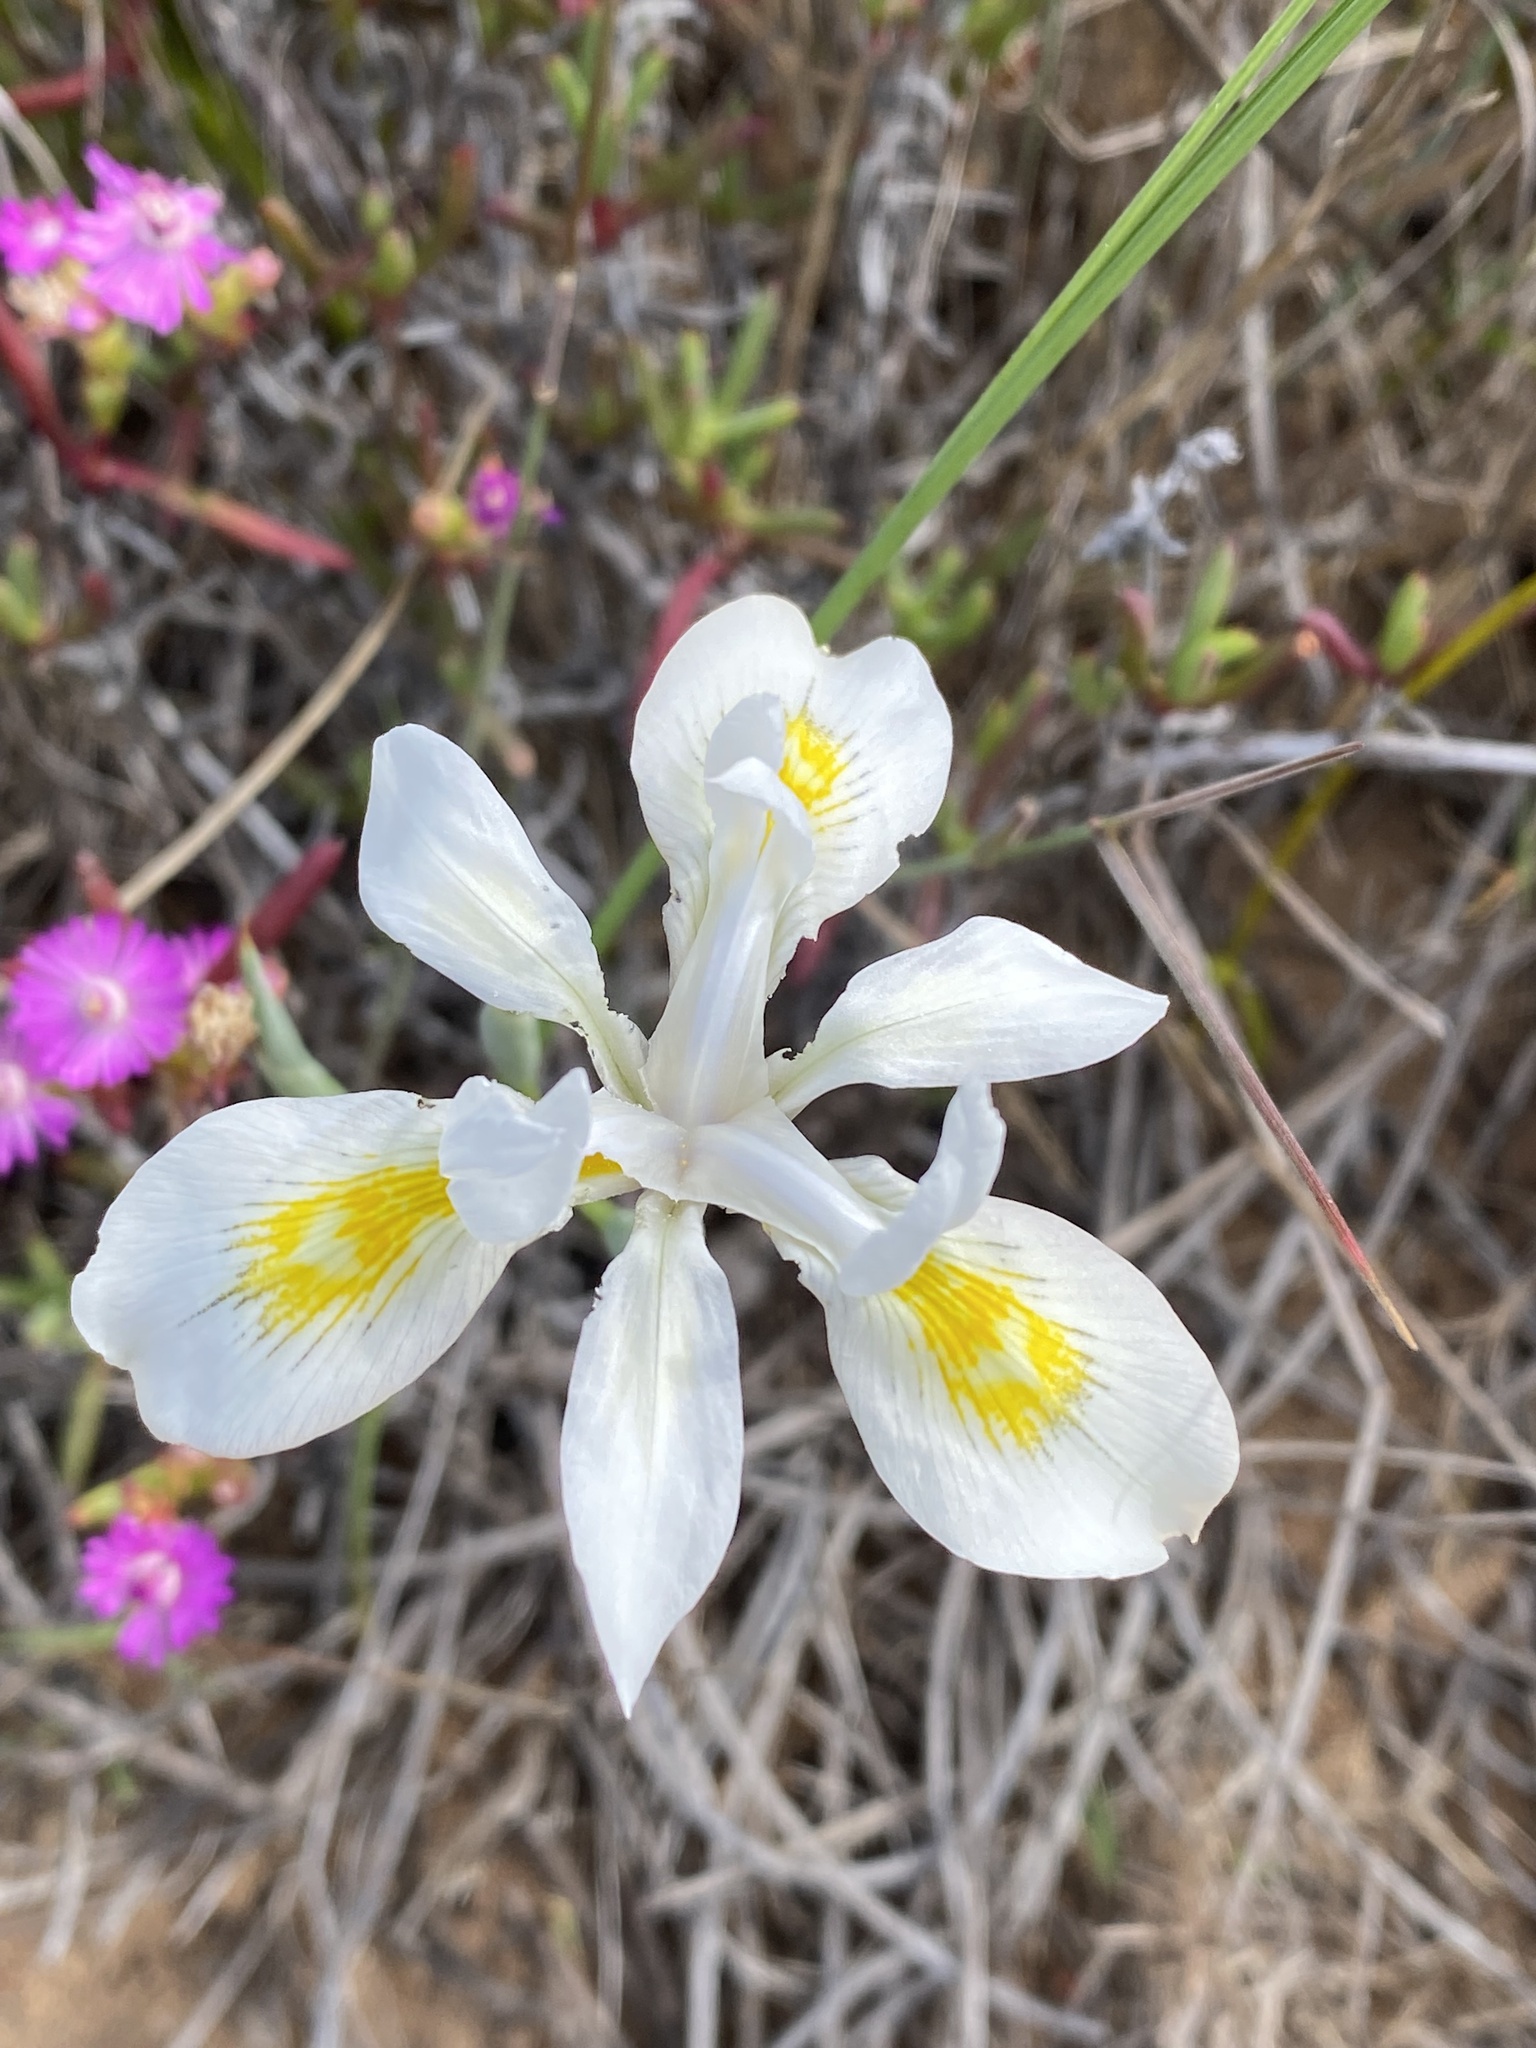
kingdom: Plantae
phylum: Tracheophyta
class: Liliopsida
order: Asparagales
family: Iridaceae
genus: Moraea
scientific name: Moraea fugax
